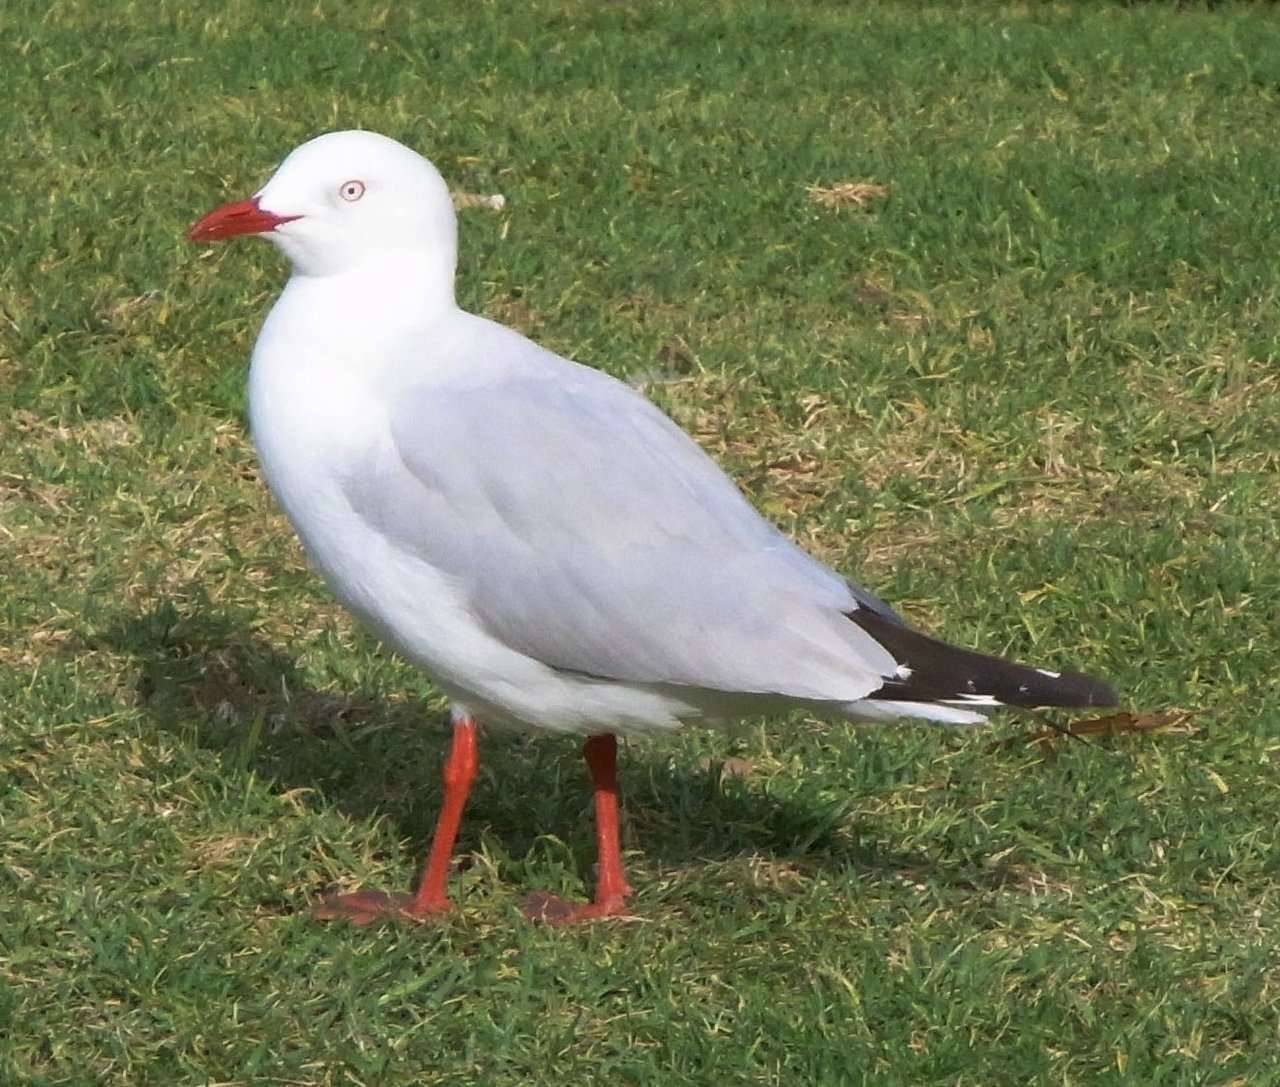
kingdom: Animalia
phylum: Chordata
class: Aves
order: Charadriiformes
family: Laridae
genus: Chroicocephalus
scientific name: Chroicocephalus novaehollandiae
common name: Silver gull
